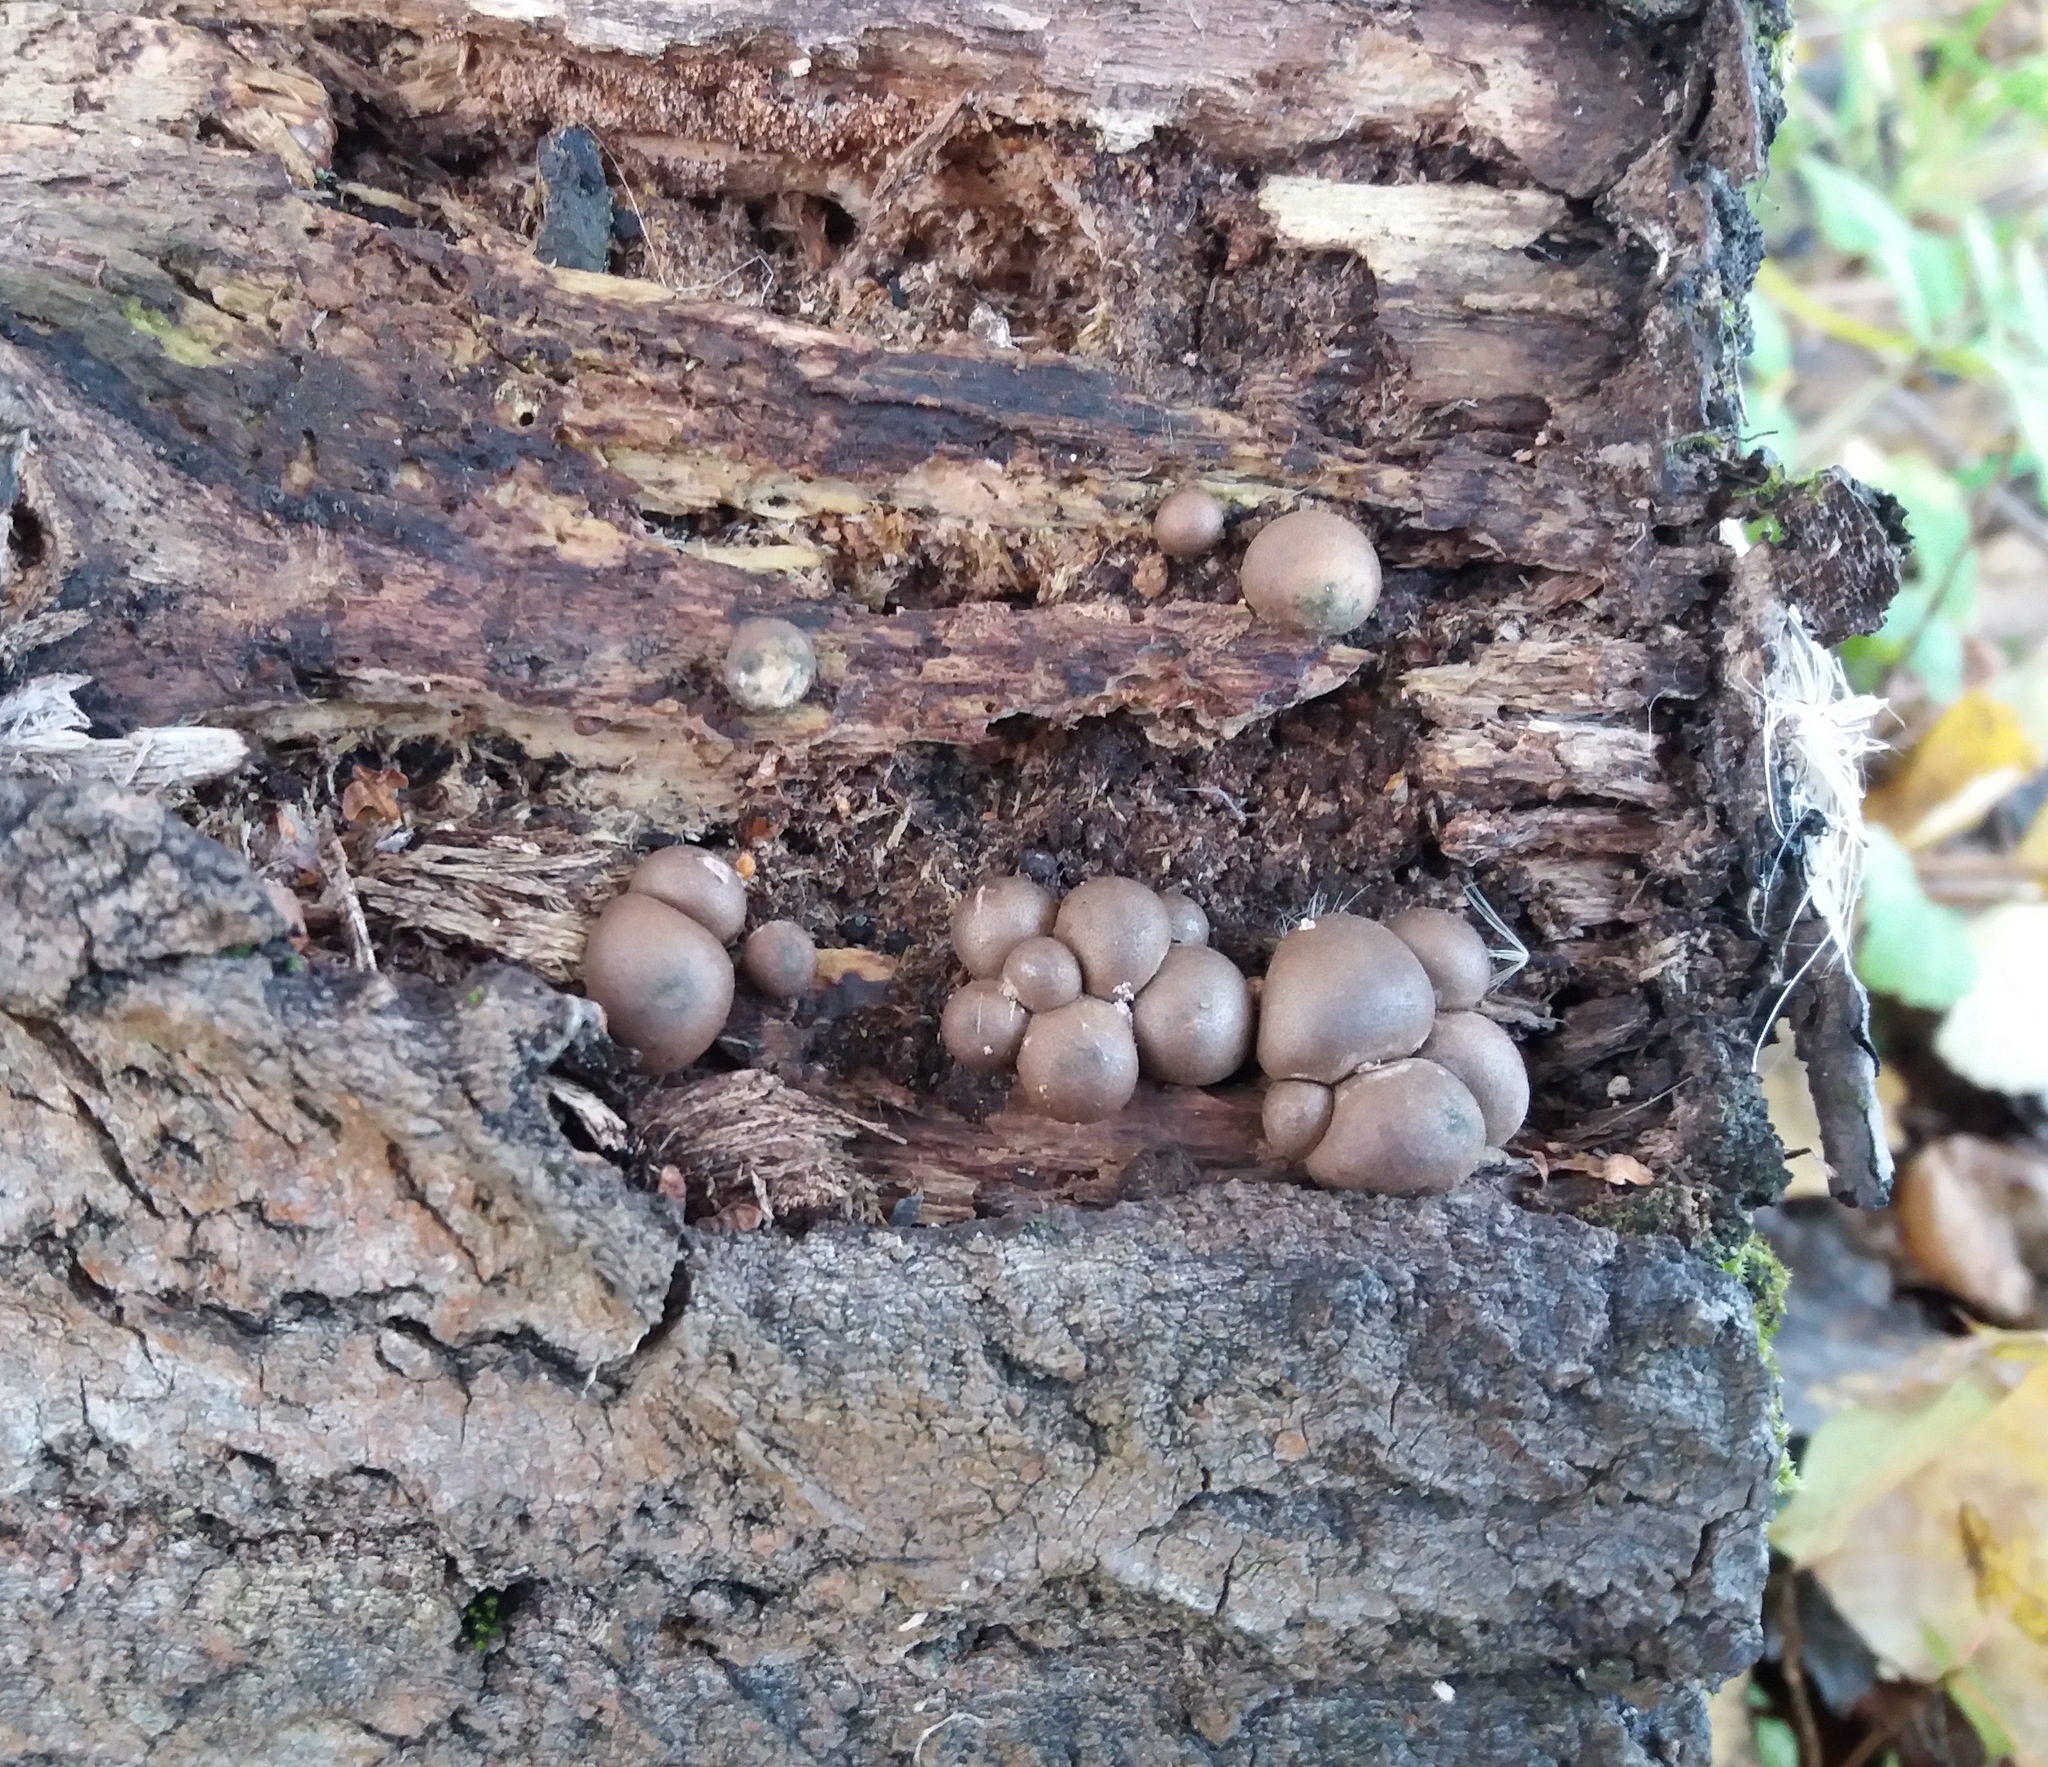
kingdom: Protozoa
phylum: Mycetozoa
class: Myxomycetes
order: Cribrariales
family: Tubiferaceae
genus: Lycogala
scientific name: Lycogala epidendrum
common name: Wolf's milk
